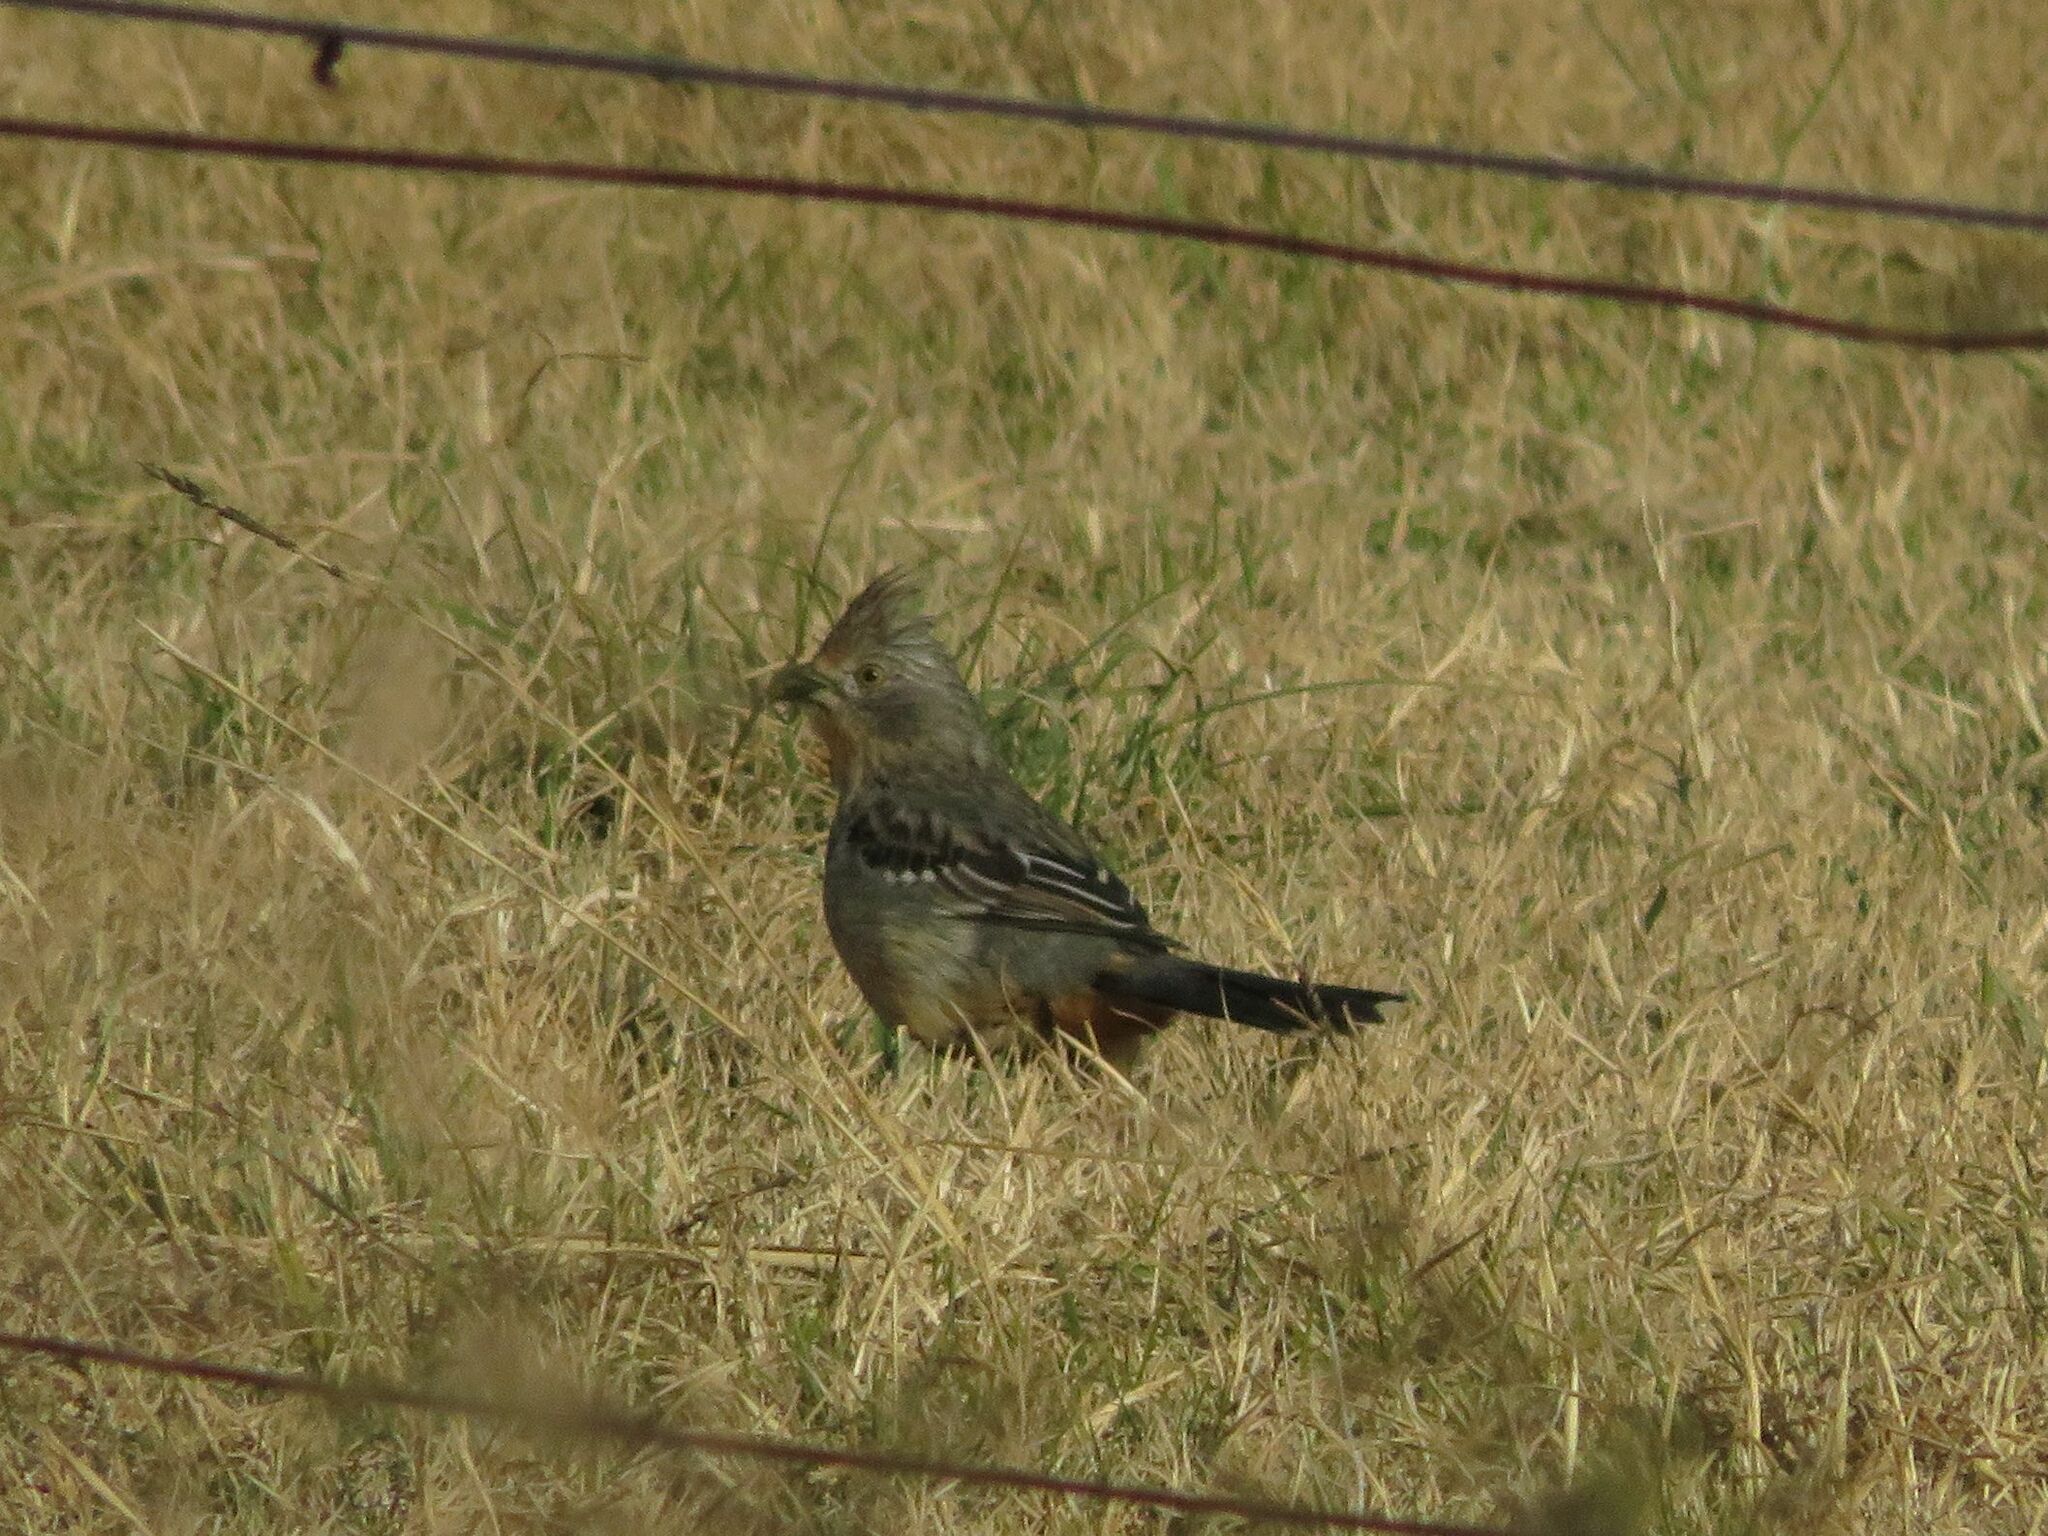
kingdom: Animalia
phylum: Chordata
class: Aves
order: Passeriformes
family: Cotingidae
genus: Phytotoma
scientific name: Phytotoma rutila
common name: White-tipped plantcutter
